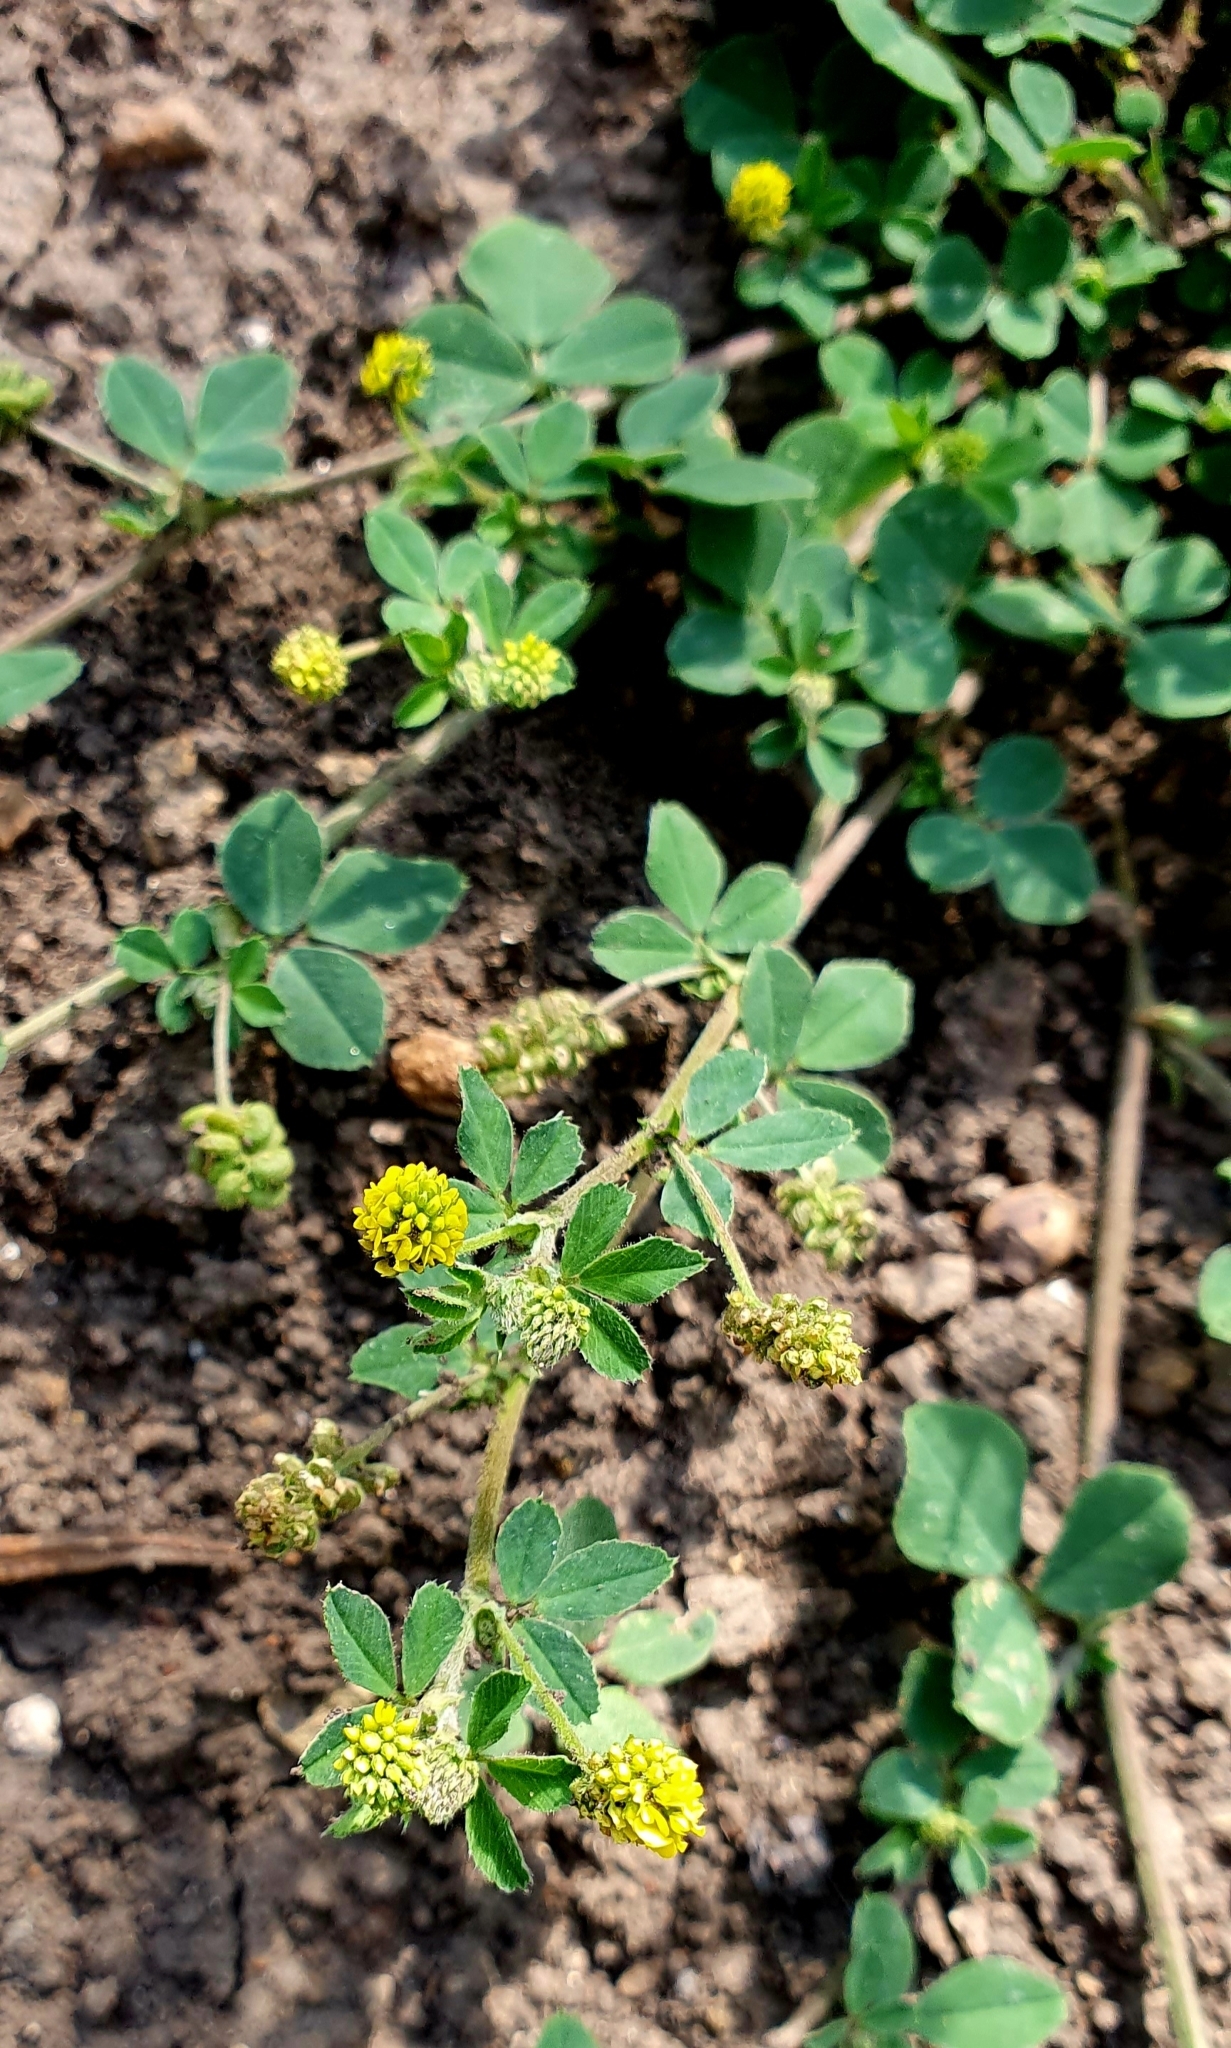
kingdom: Plantae
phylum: Tracheophyta
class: Magnoliopsida
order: Fabales
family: Fabaceae
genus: Medicago
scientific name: Medicago lupulina
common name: Black medick
